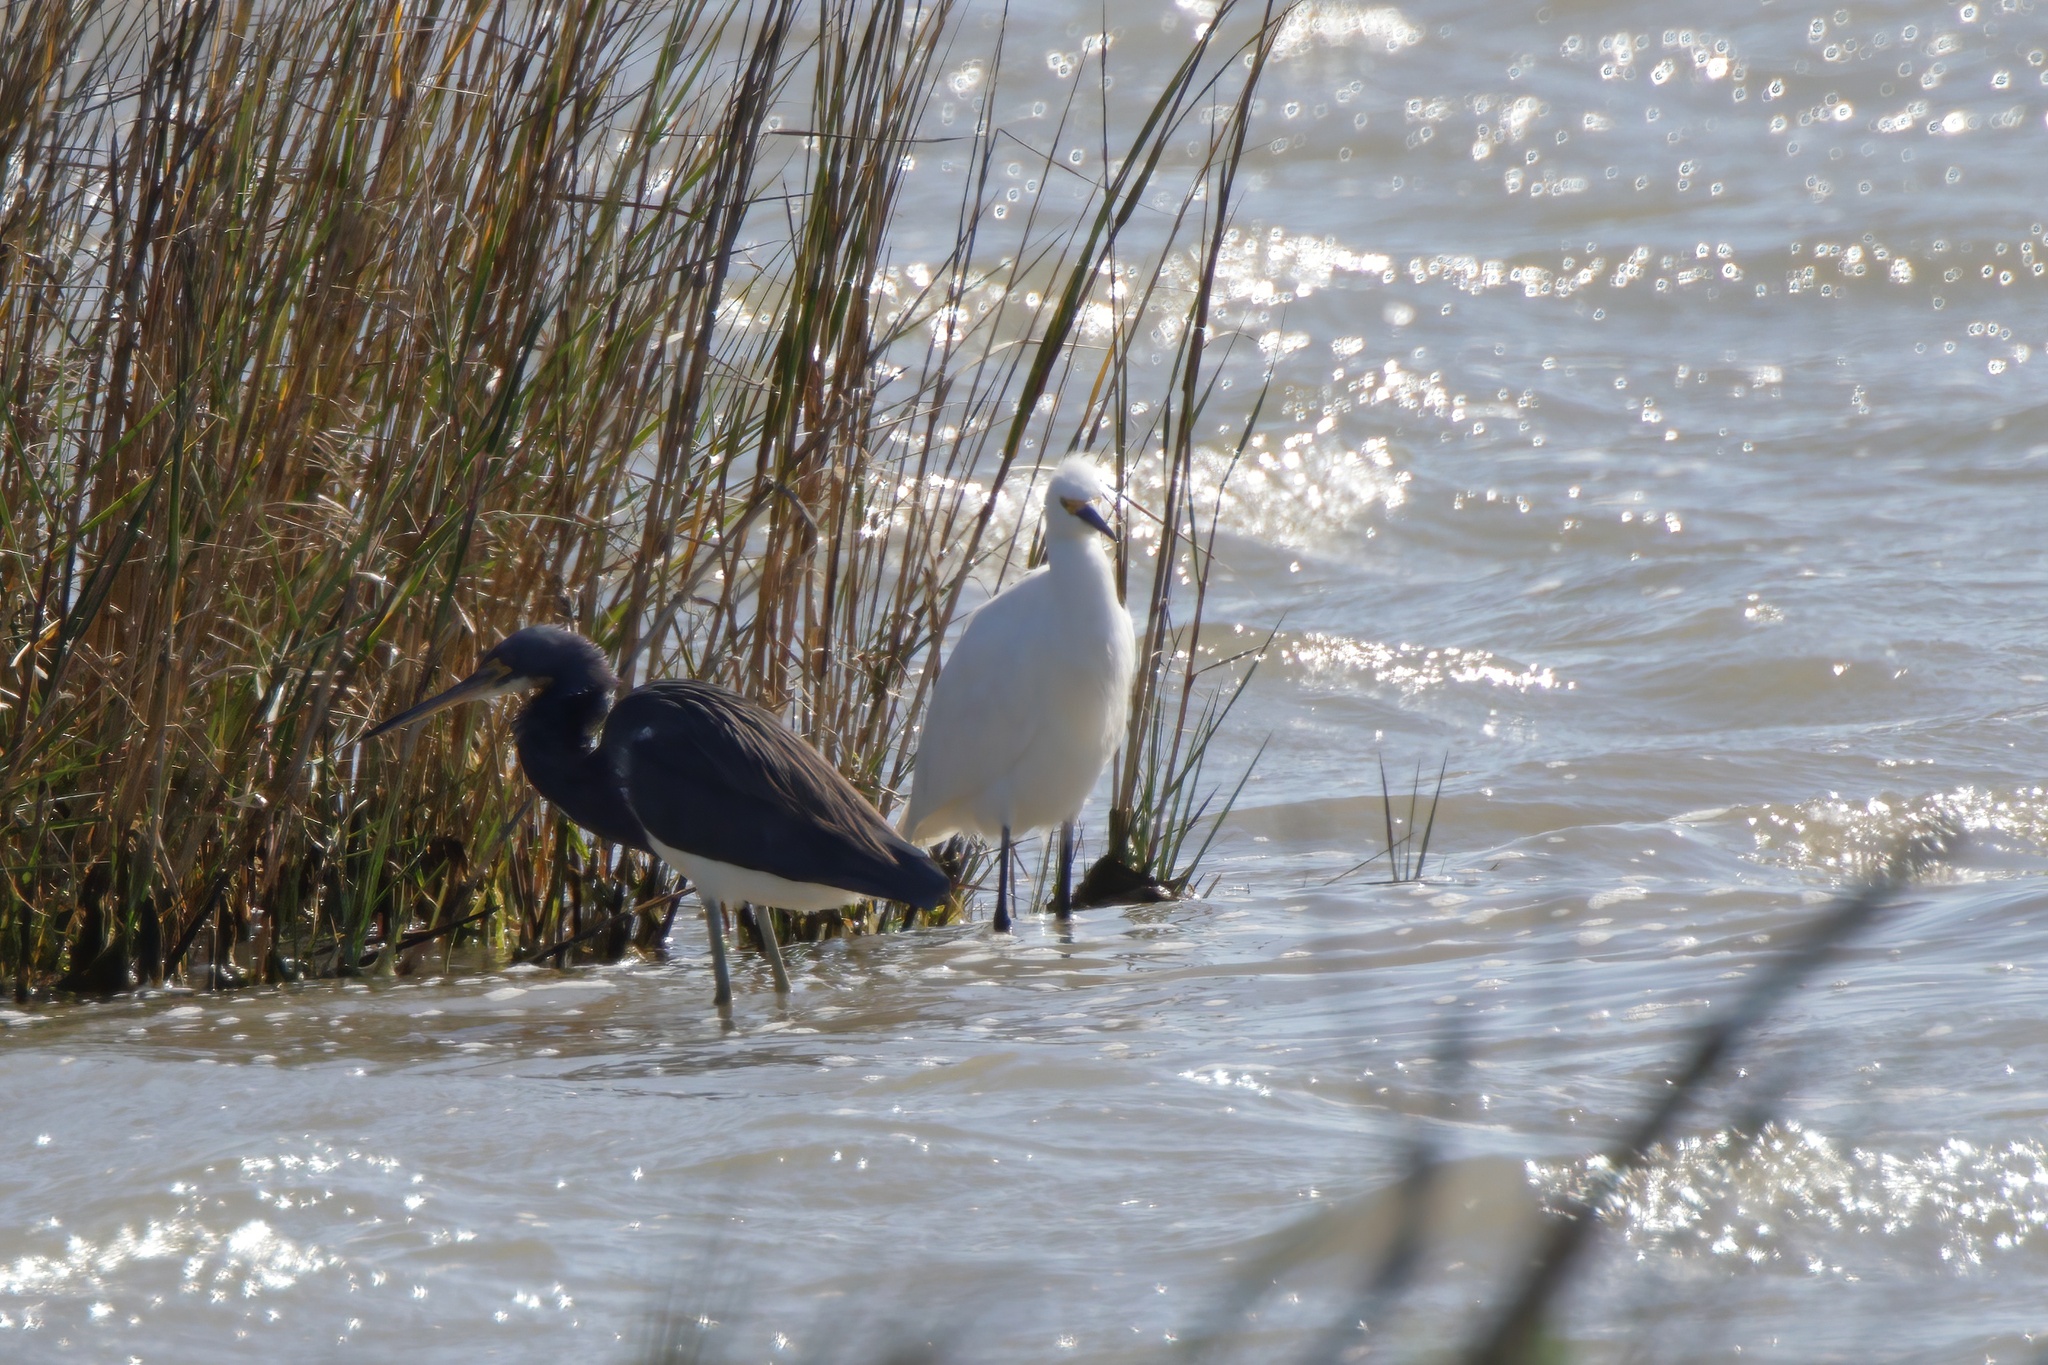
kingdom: Animalia
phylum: Chordata
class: Aves
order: Pelecaniformes
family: Ardeidae
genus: Egretta
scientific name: Egretta thula
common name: Snowy egret
